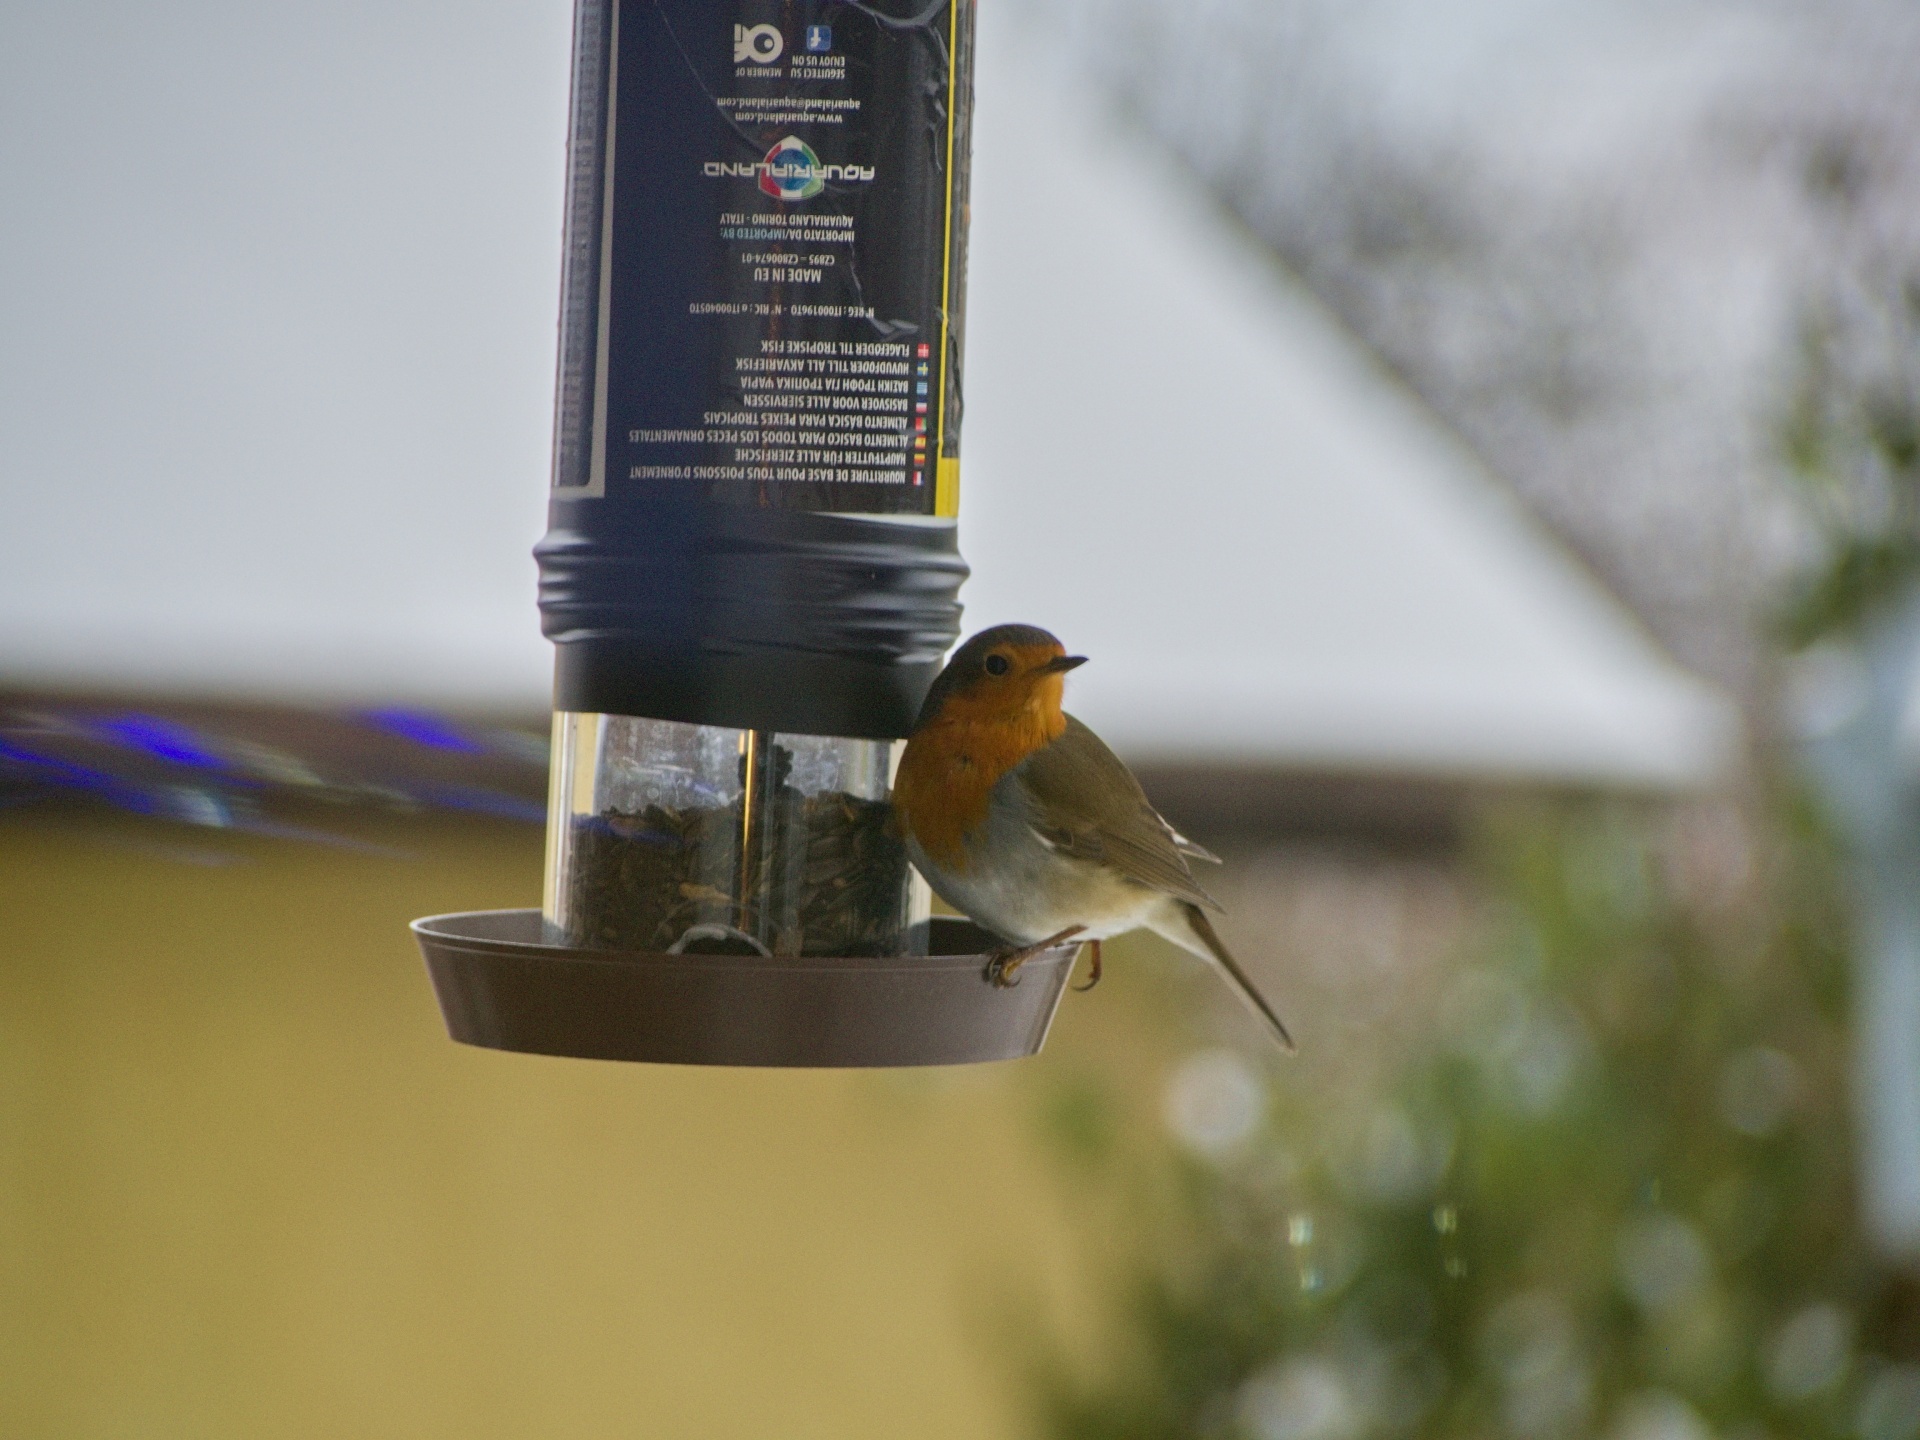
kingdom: Animalia
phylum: Chordata
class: Aves
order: Passeriformes
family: Muscicapidae
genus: Erithacus
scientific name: Erithacus rubecula
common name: European robin
